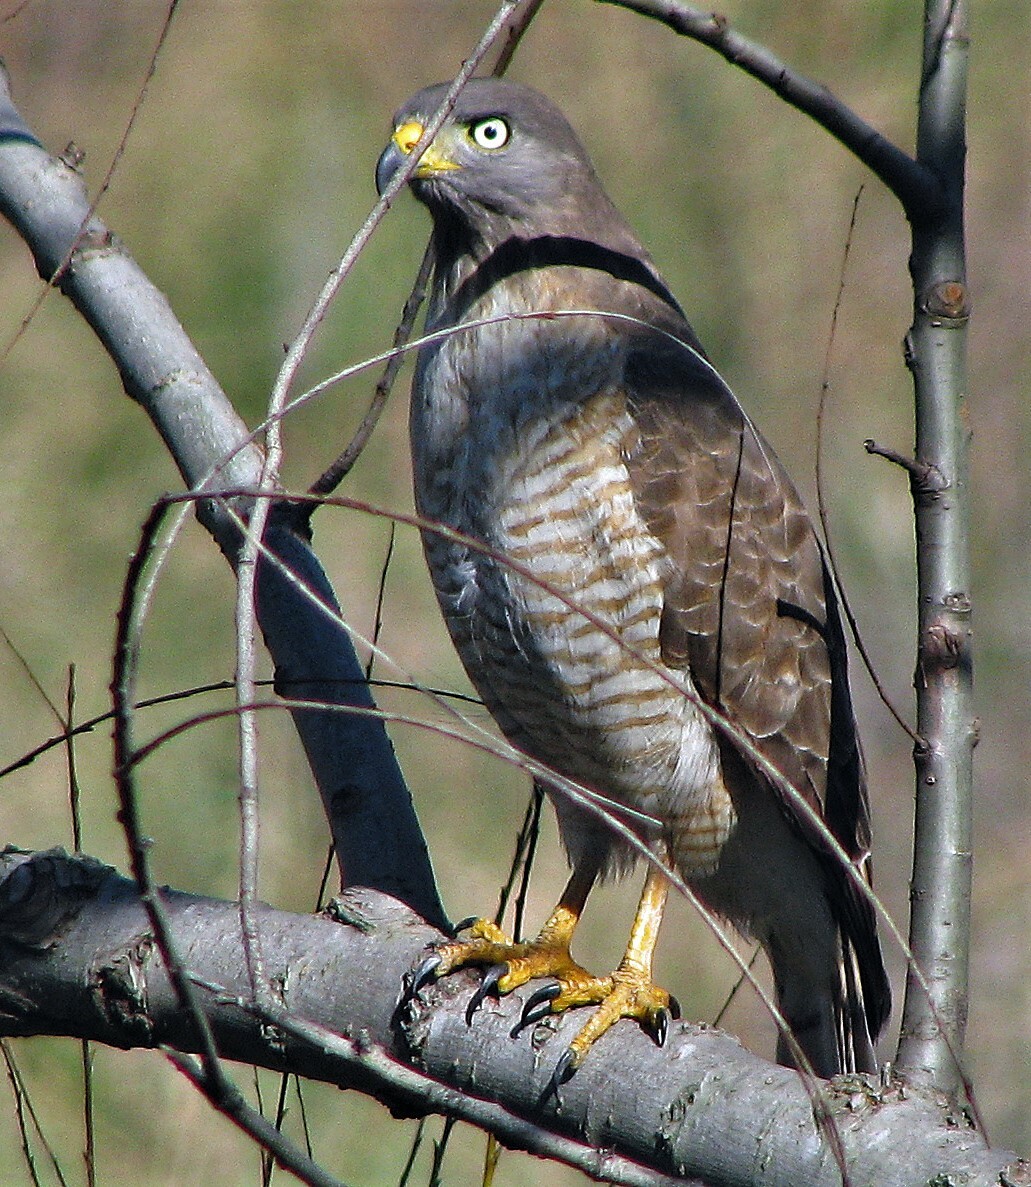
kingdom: Animalia
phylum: Chordata
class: Aves
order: Accipitriformes
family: Accipitridae
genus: Rupornis
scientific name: Rupornis magnirostris
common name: Roadside hawk
